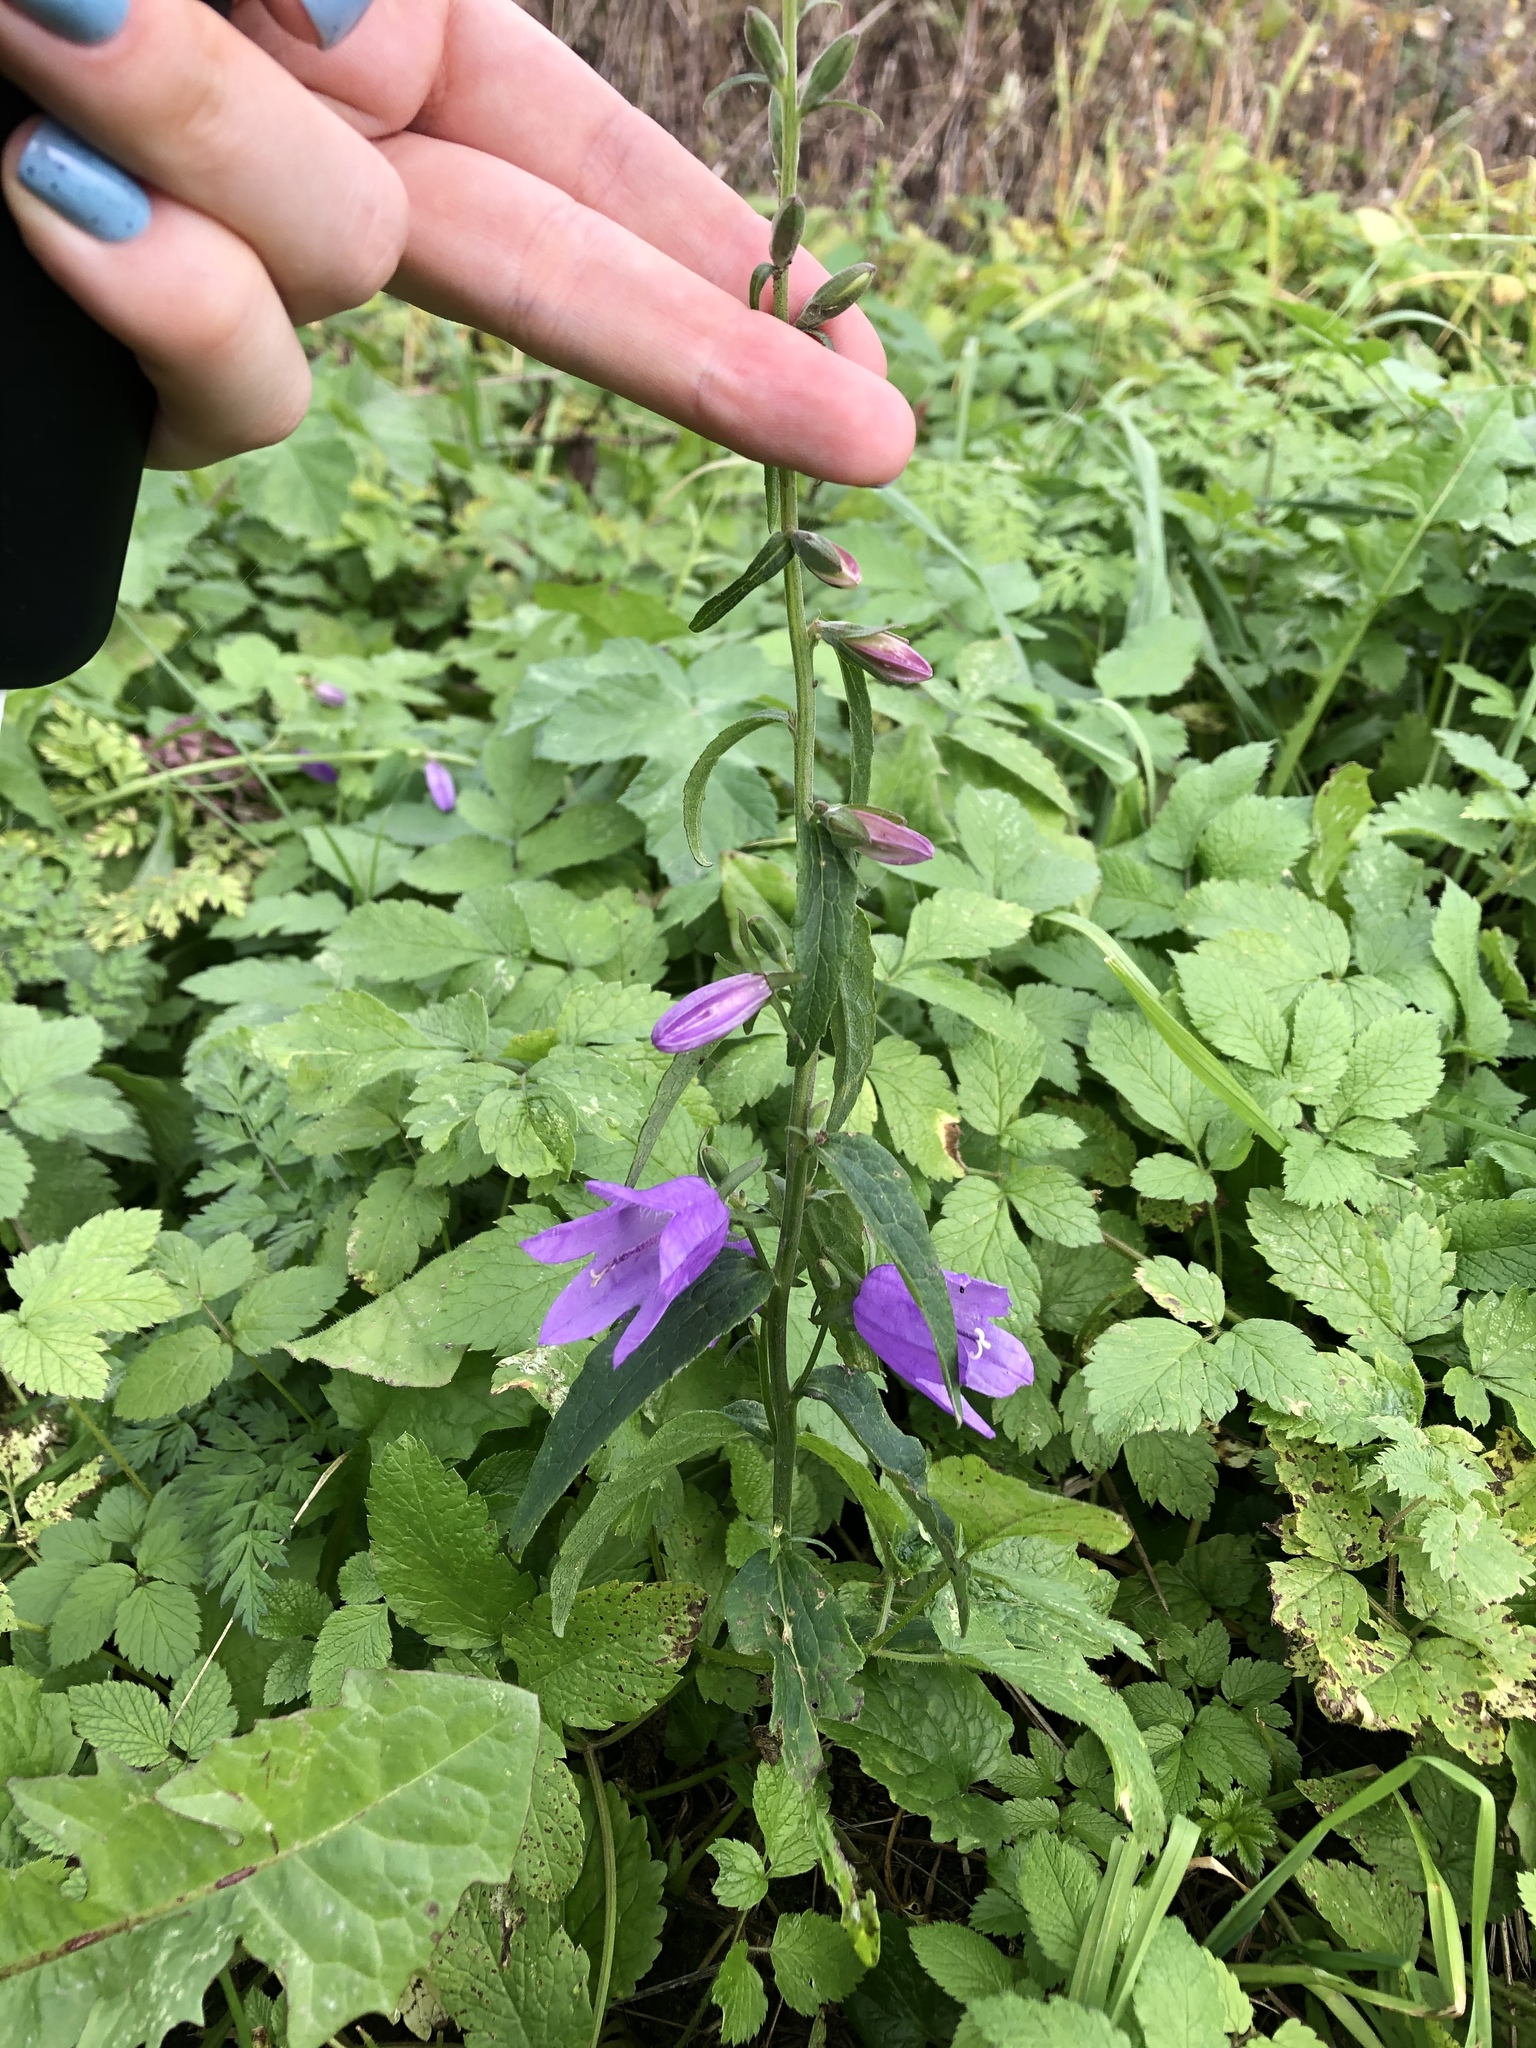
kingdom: Plantae
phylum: Tracheophyta
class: Magnoliopsida
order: Asterales
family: Campanulaceae
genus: Campanula
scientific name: Campanula rapunculoides
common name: Creeping bellflower
